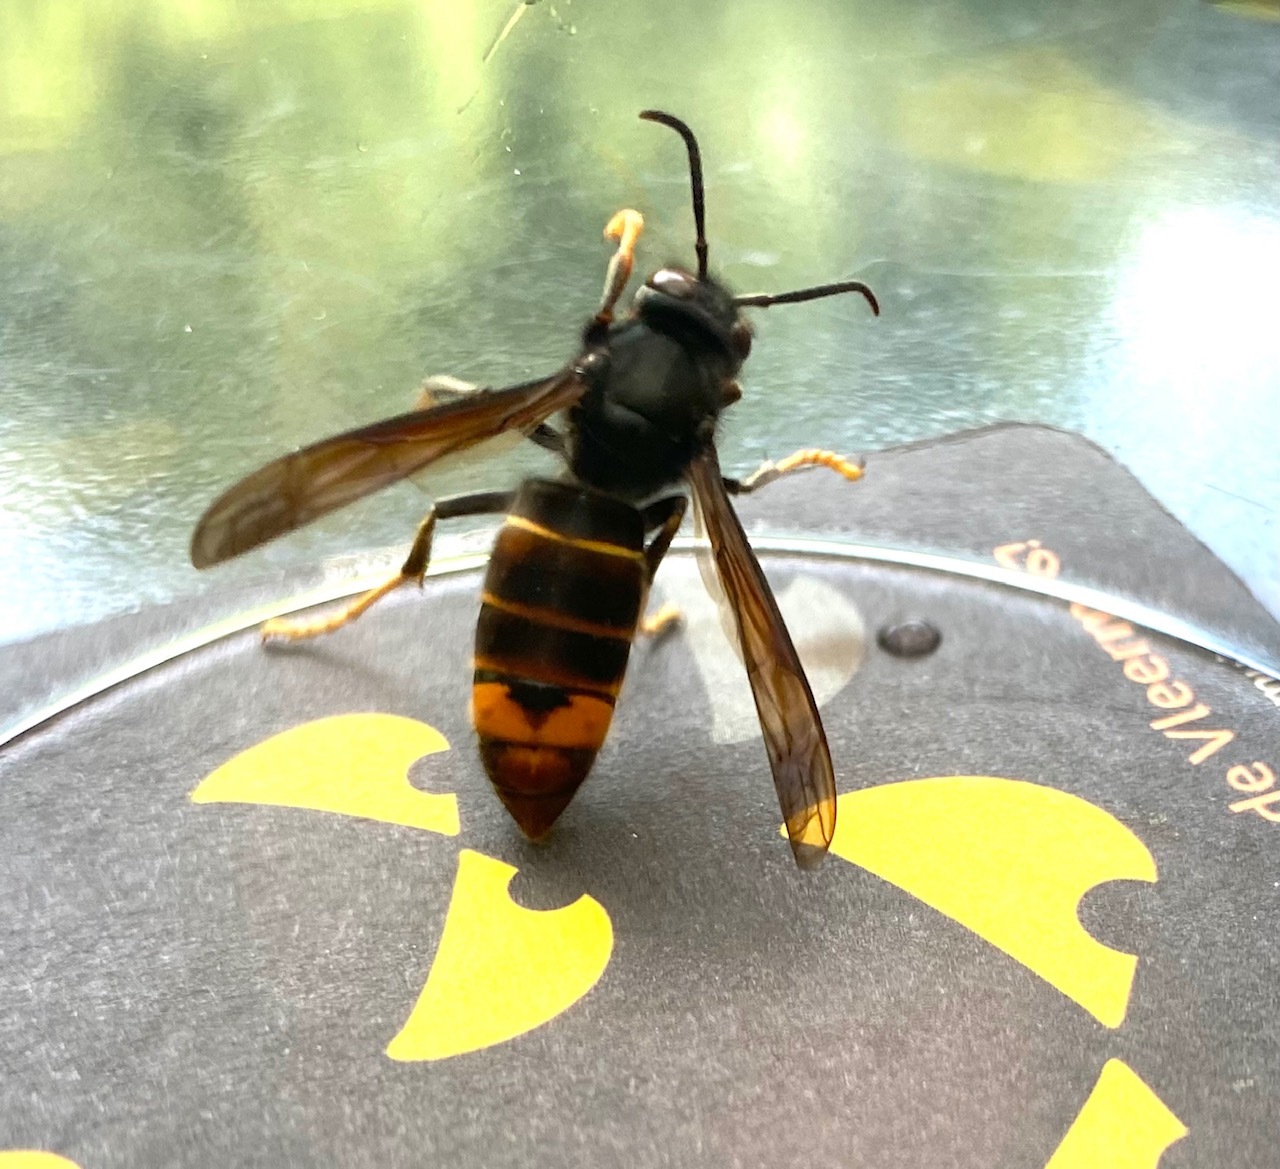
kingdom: Animalia
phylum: Arthropoda
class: Insecta
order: Hymenoptera
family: Vespidae
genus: Vespa
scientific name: Vespa velutina
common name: Asian hornet
